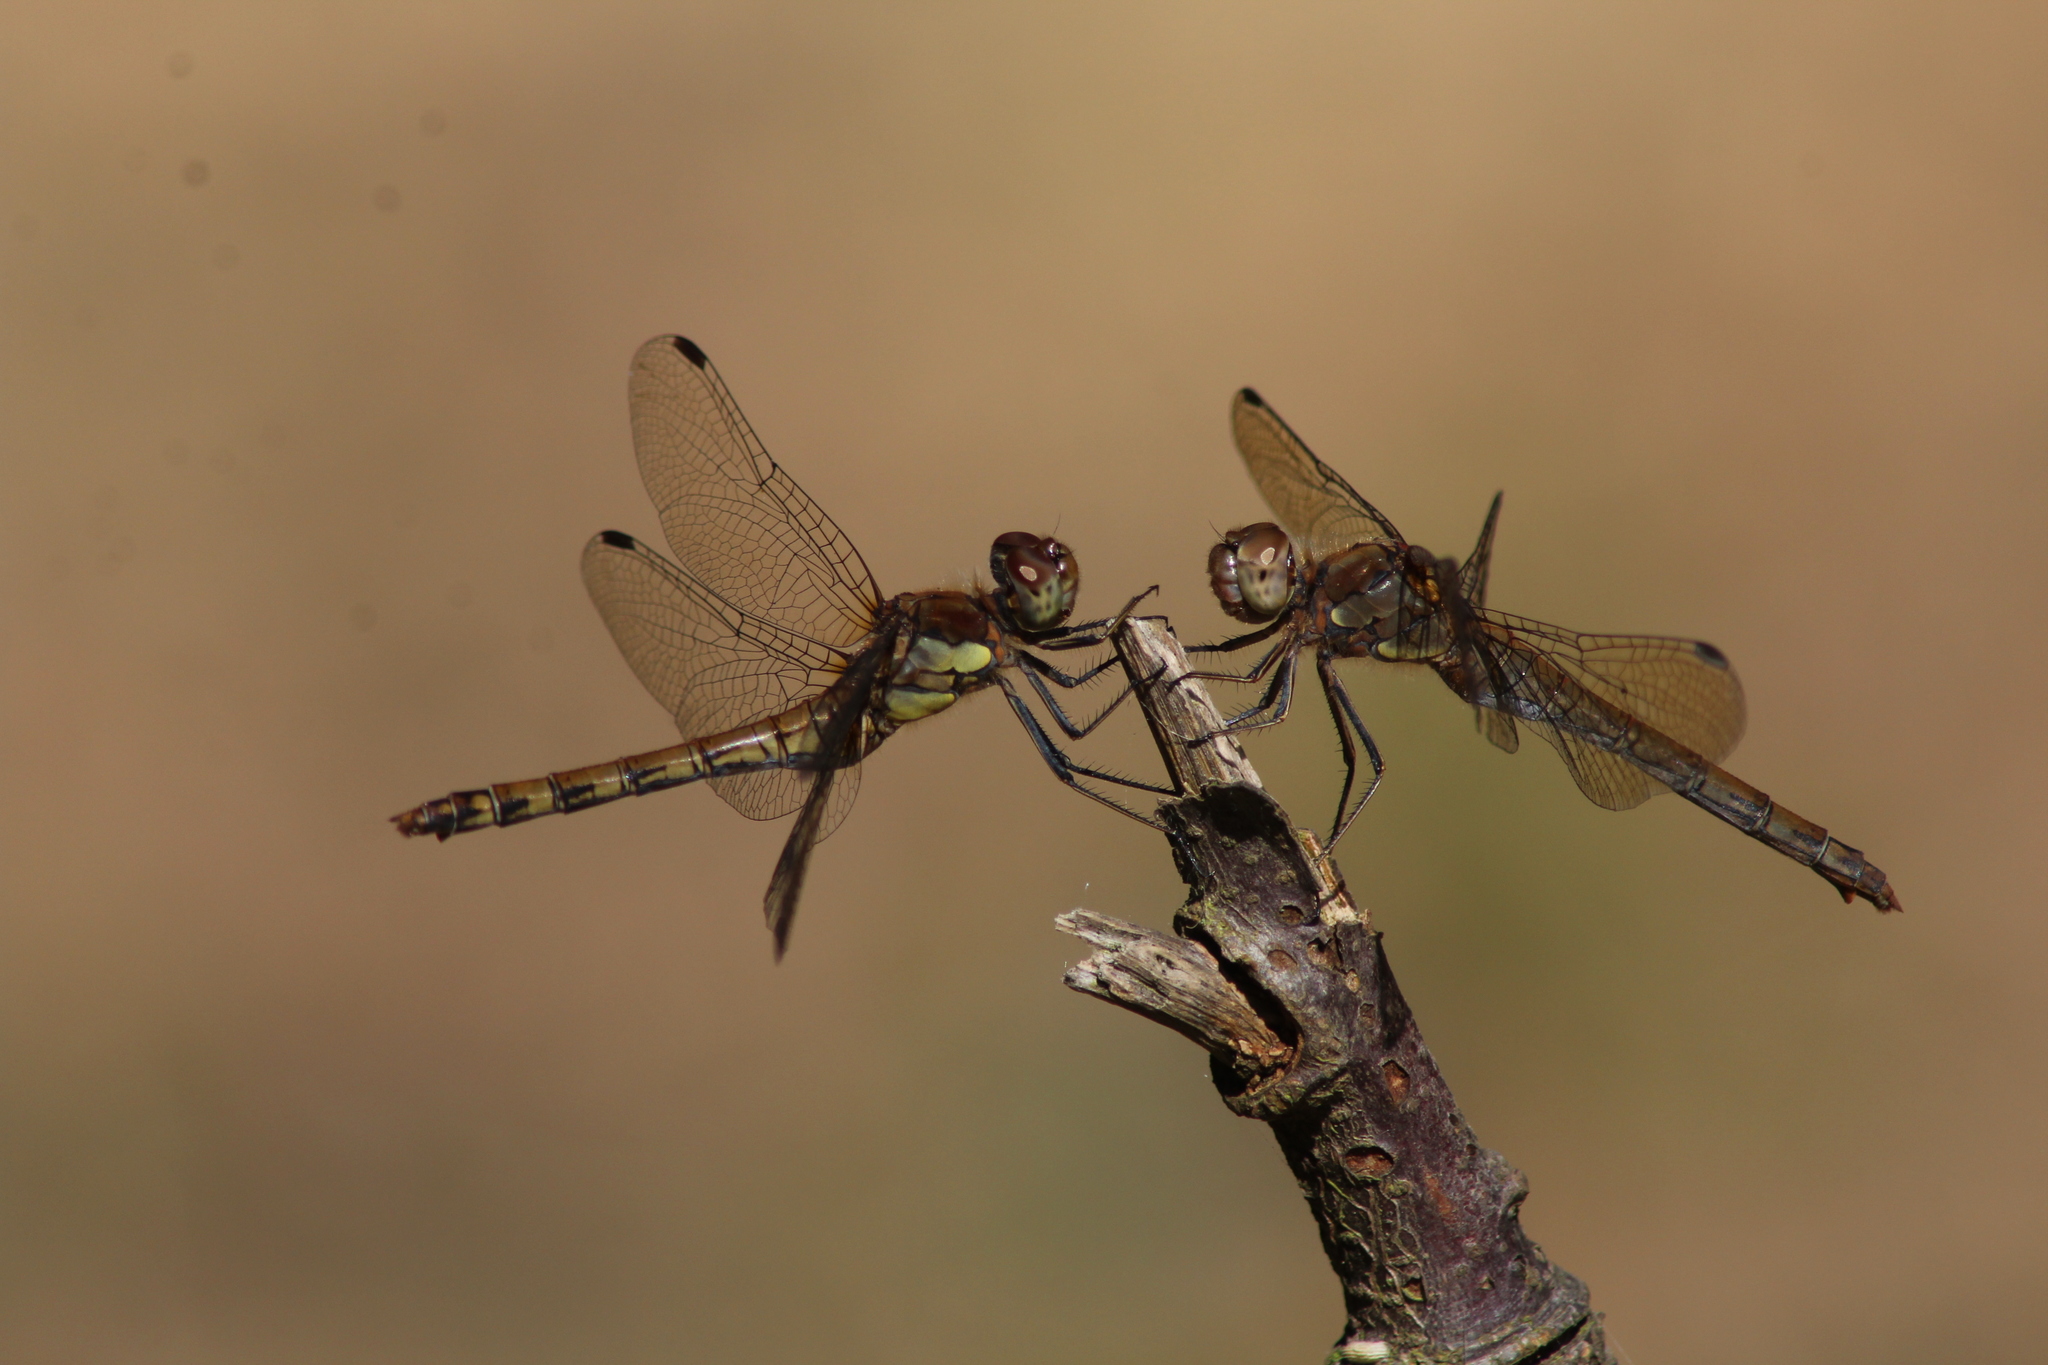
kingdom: Animalia
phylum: Arthropoda
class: Insecta
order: Odonata
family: Libellulidae
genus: Sympetrum
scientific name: Sympetrum striolatum
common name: Common darter
